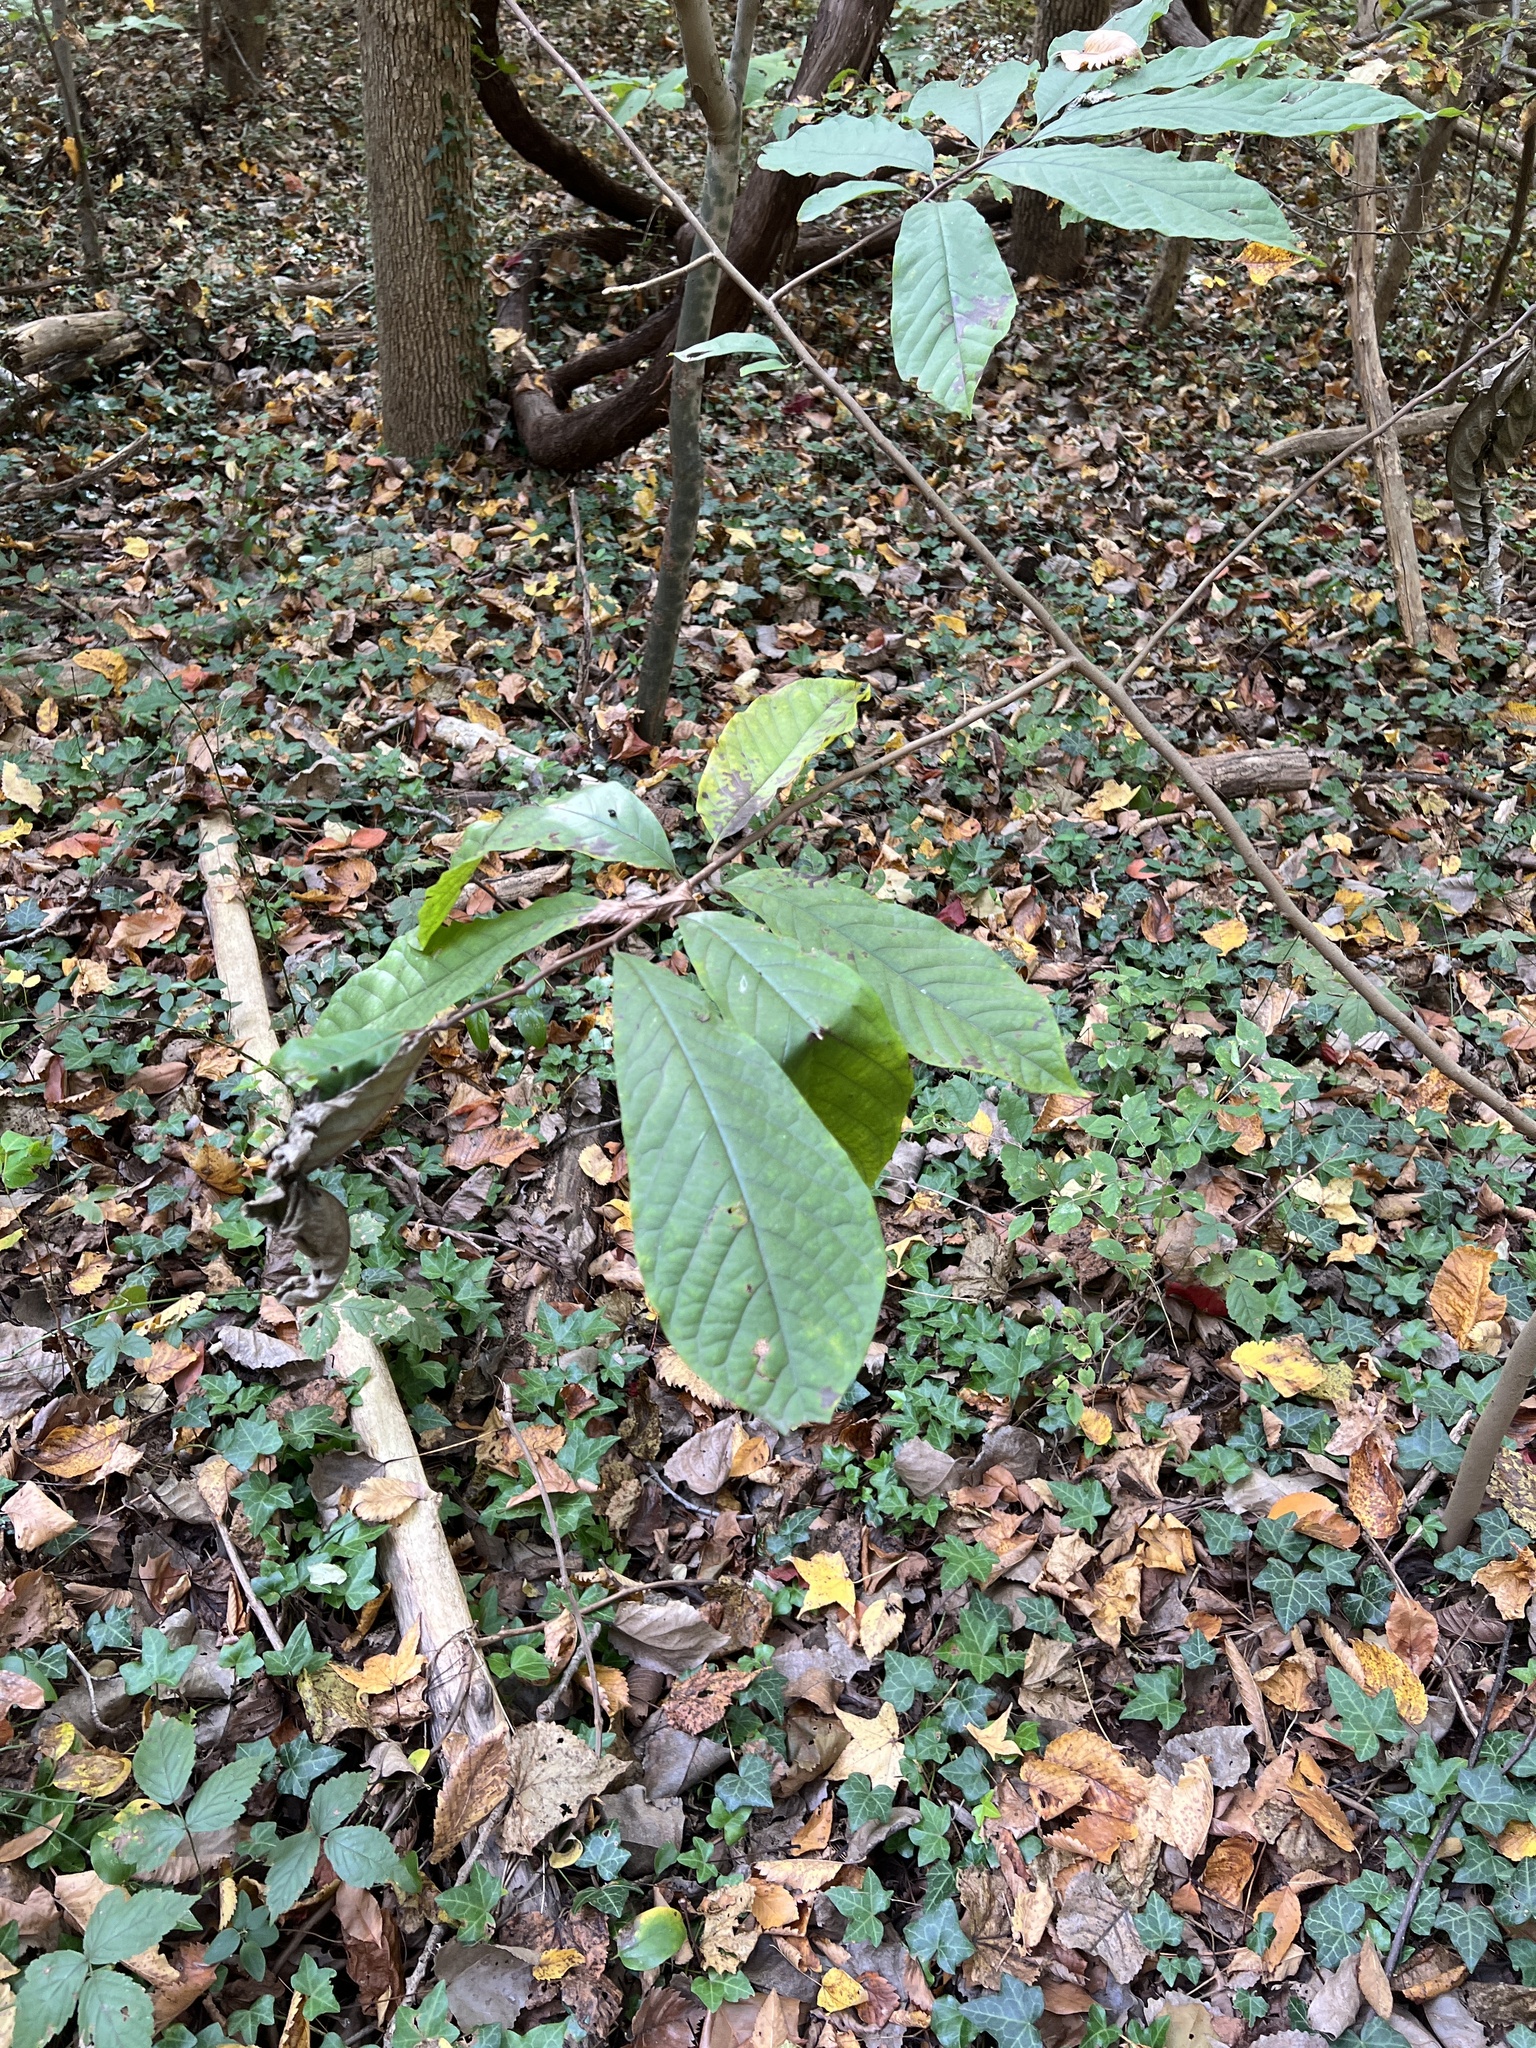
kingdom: Plantae
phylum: Tracheophyta
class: Magnoliopsida
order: Magnoliales
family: Annonaceae
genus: Asimina
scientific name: Asimina triloba
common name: Dog-banana
